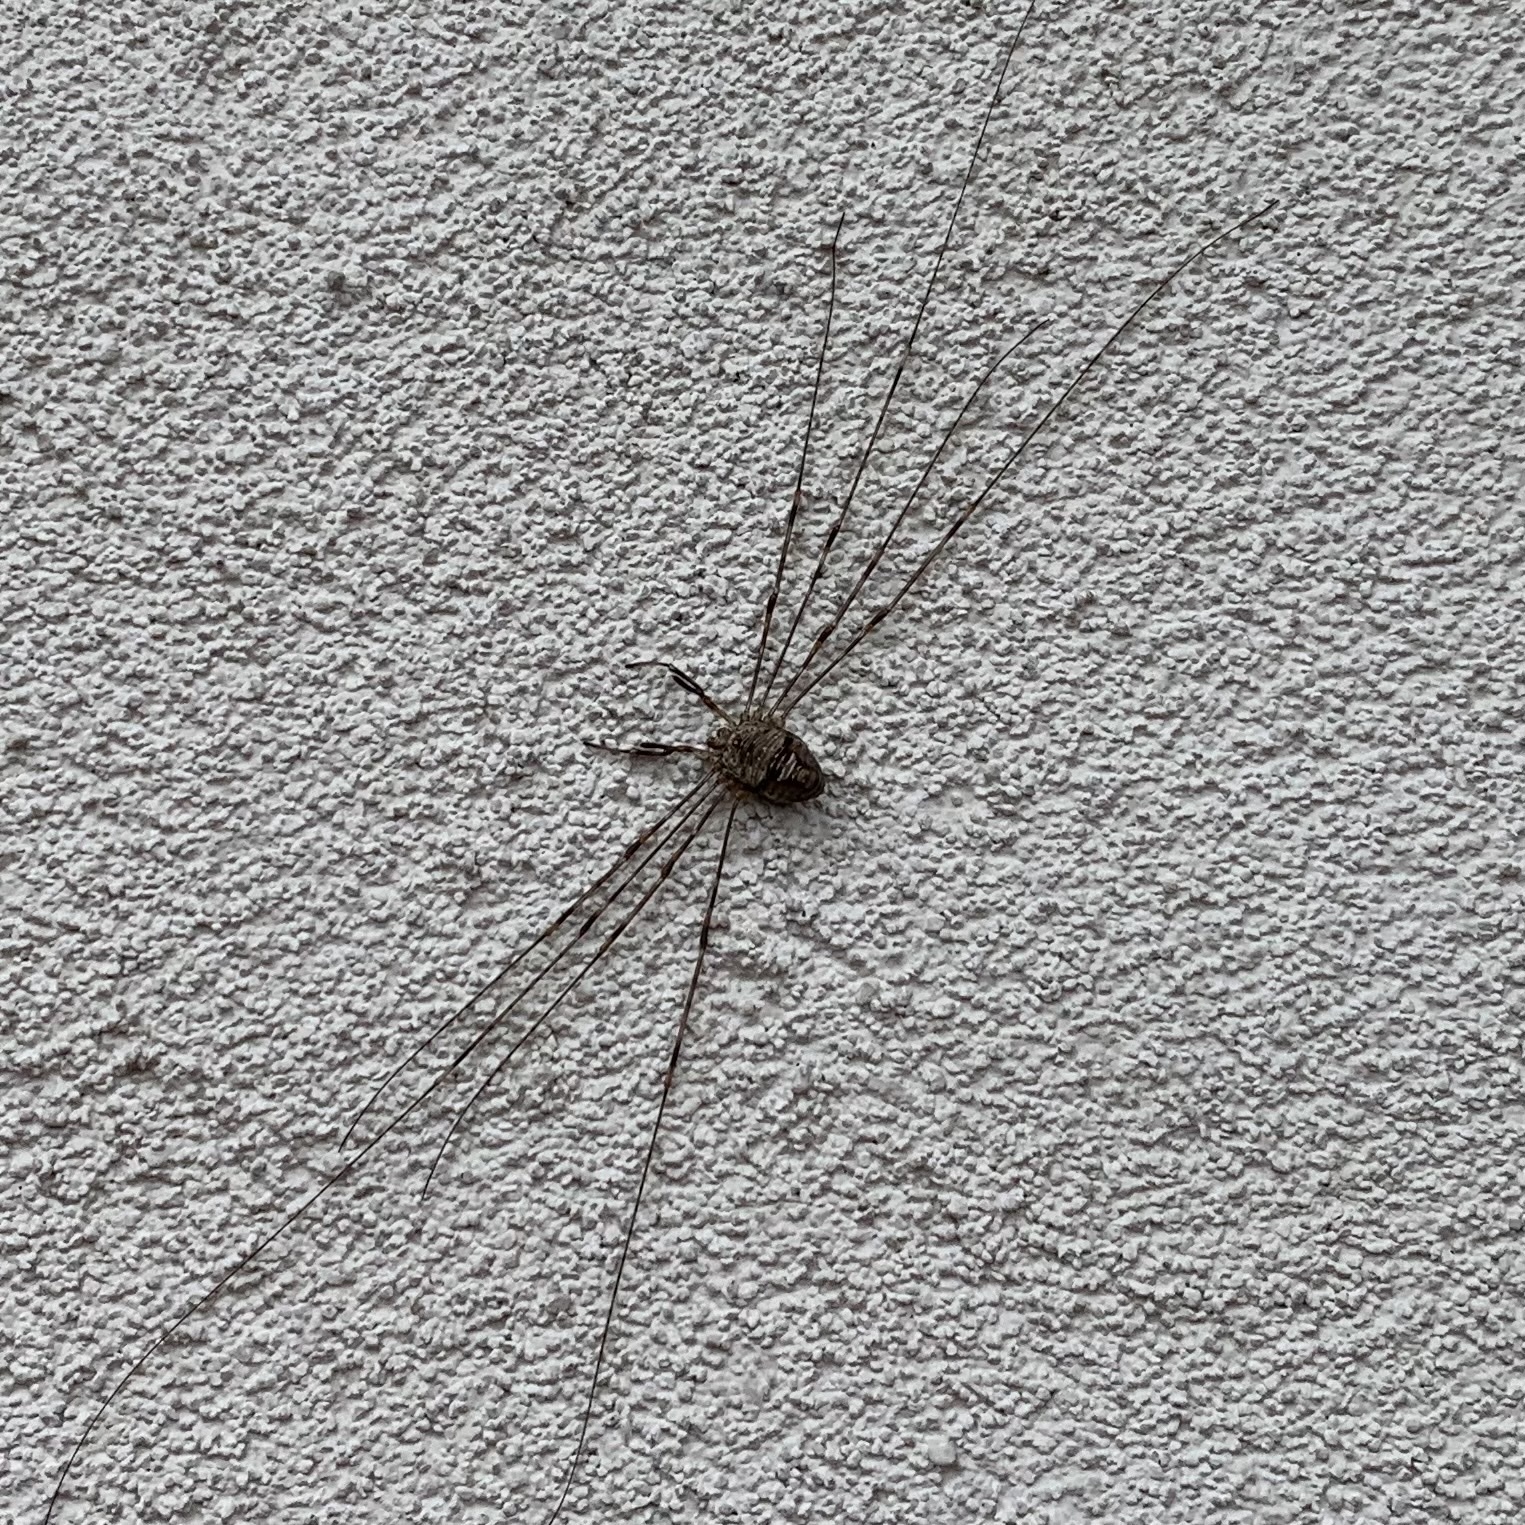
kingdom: Animalia
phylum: Arthropoda
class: Arachnida
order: Opiliones
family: Phalangiidae
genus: Dicranopalpus
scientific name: Dicranopalpus ramosus
